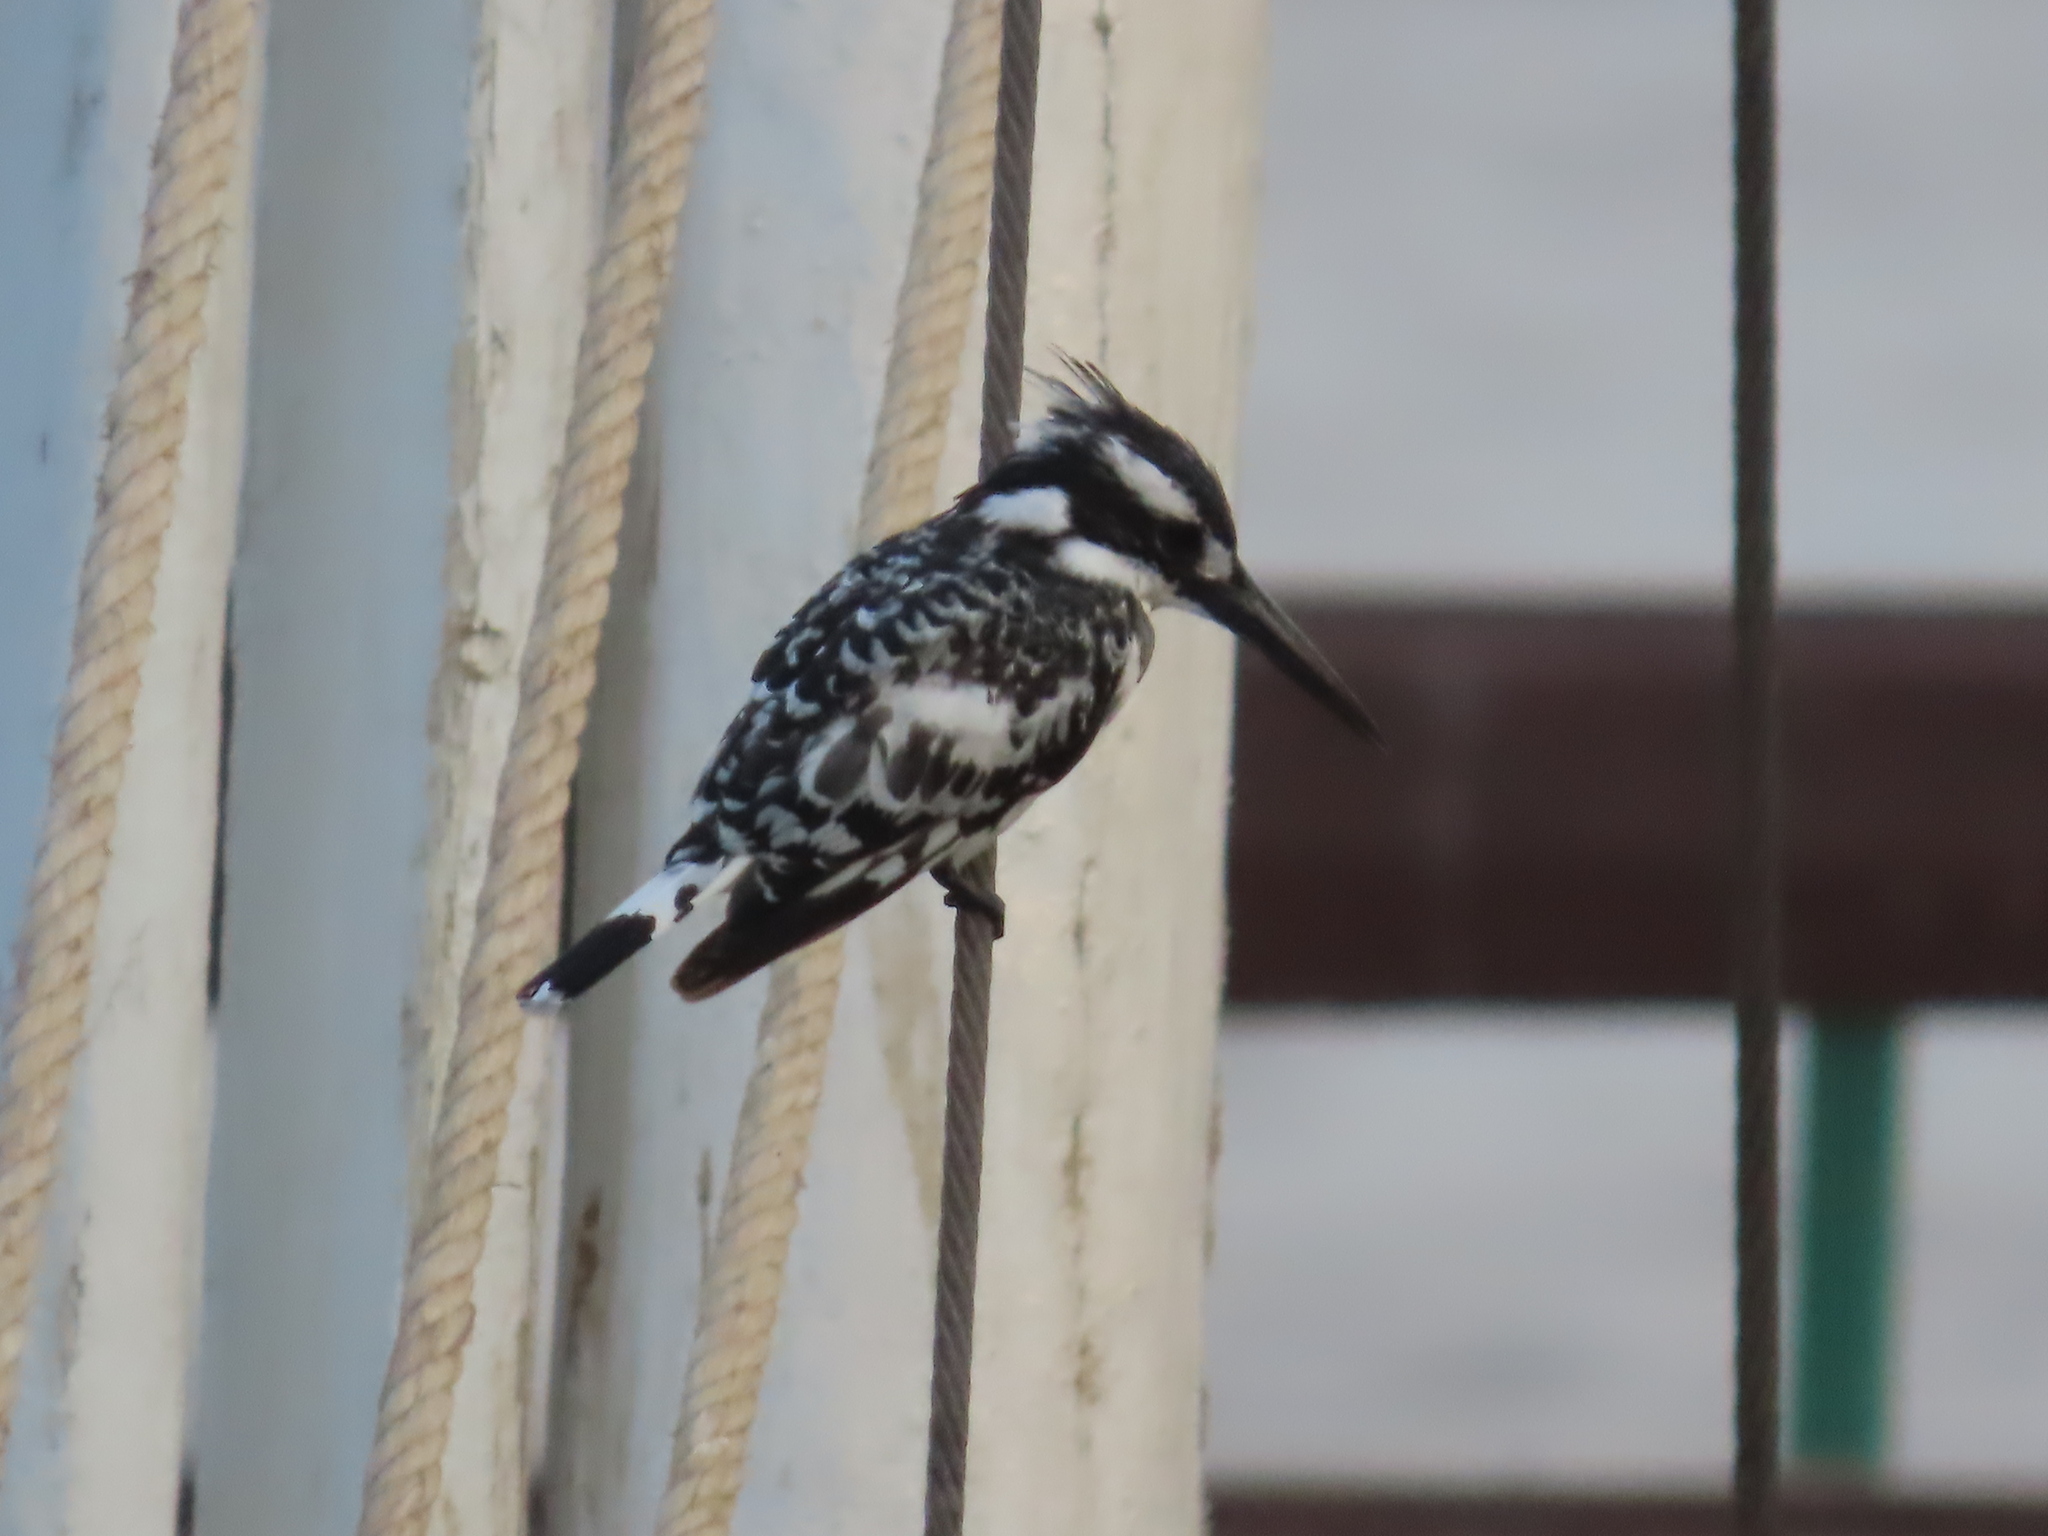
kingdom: Animalia
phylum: Chordata
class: Aves
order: Coraciiformes
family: Alcedinidae
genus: Ceryle
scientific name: Ceryle rudis
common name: Pied kingfisher
